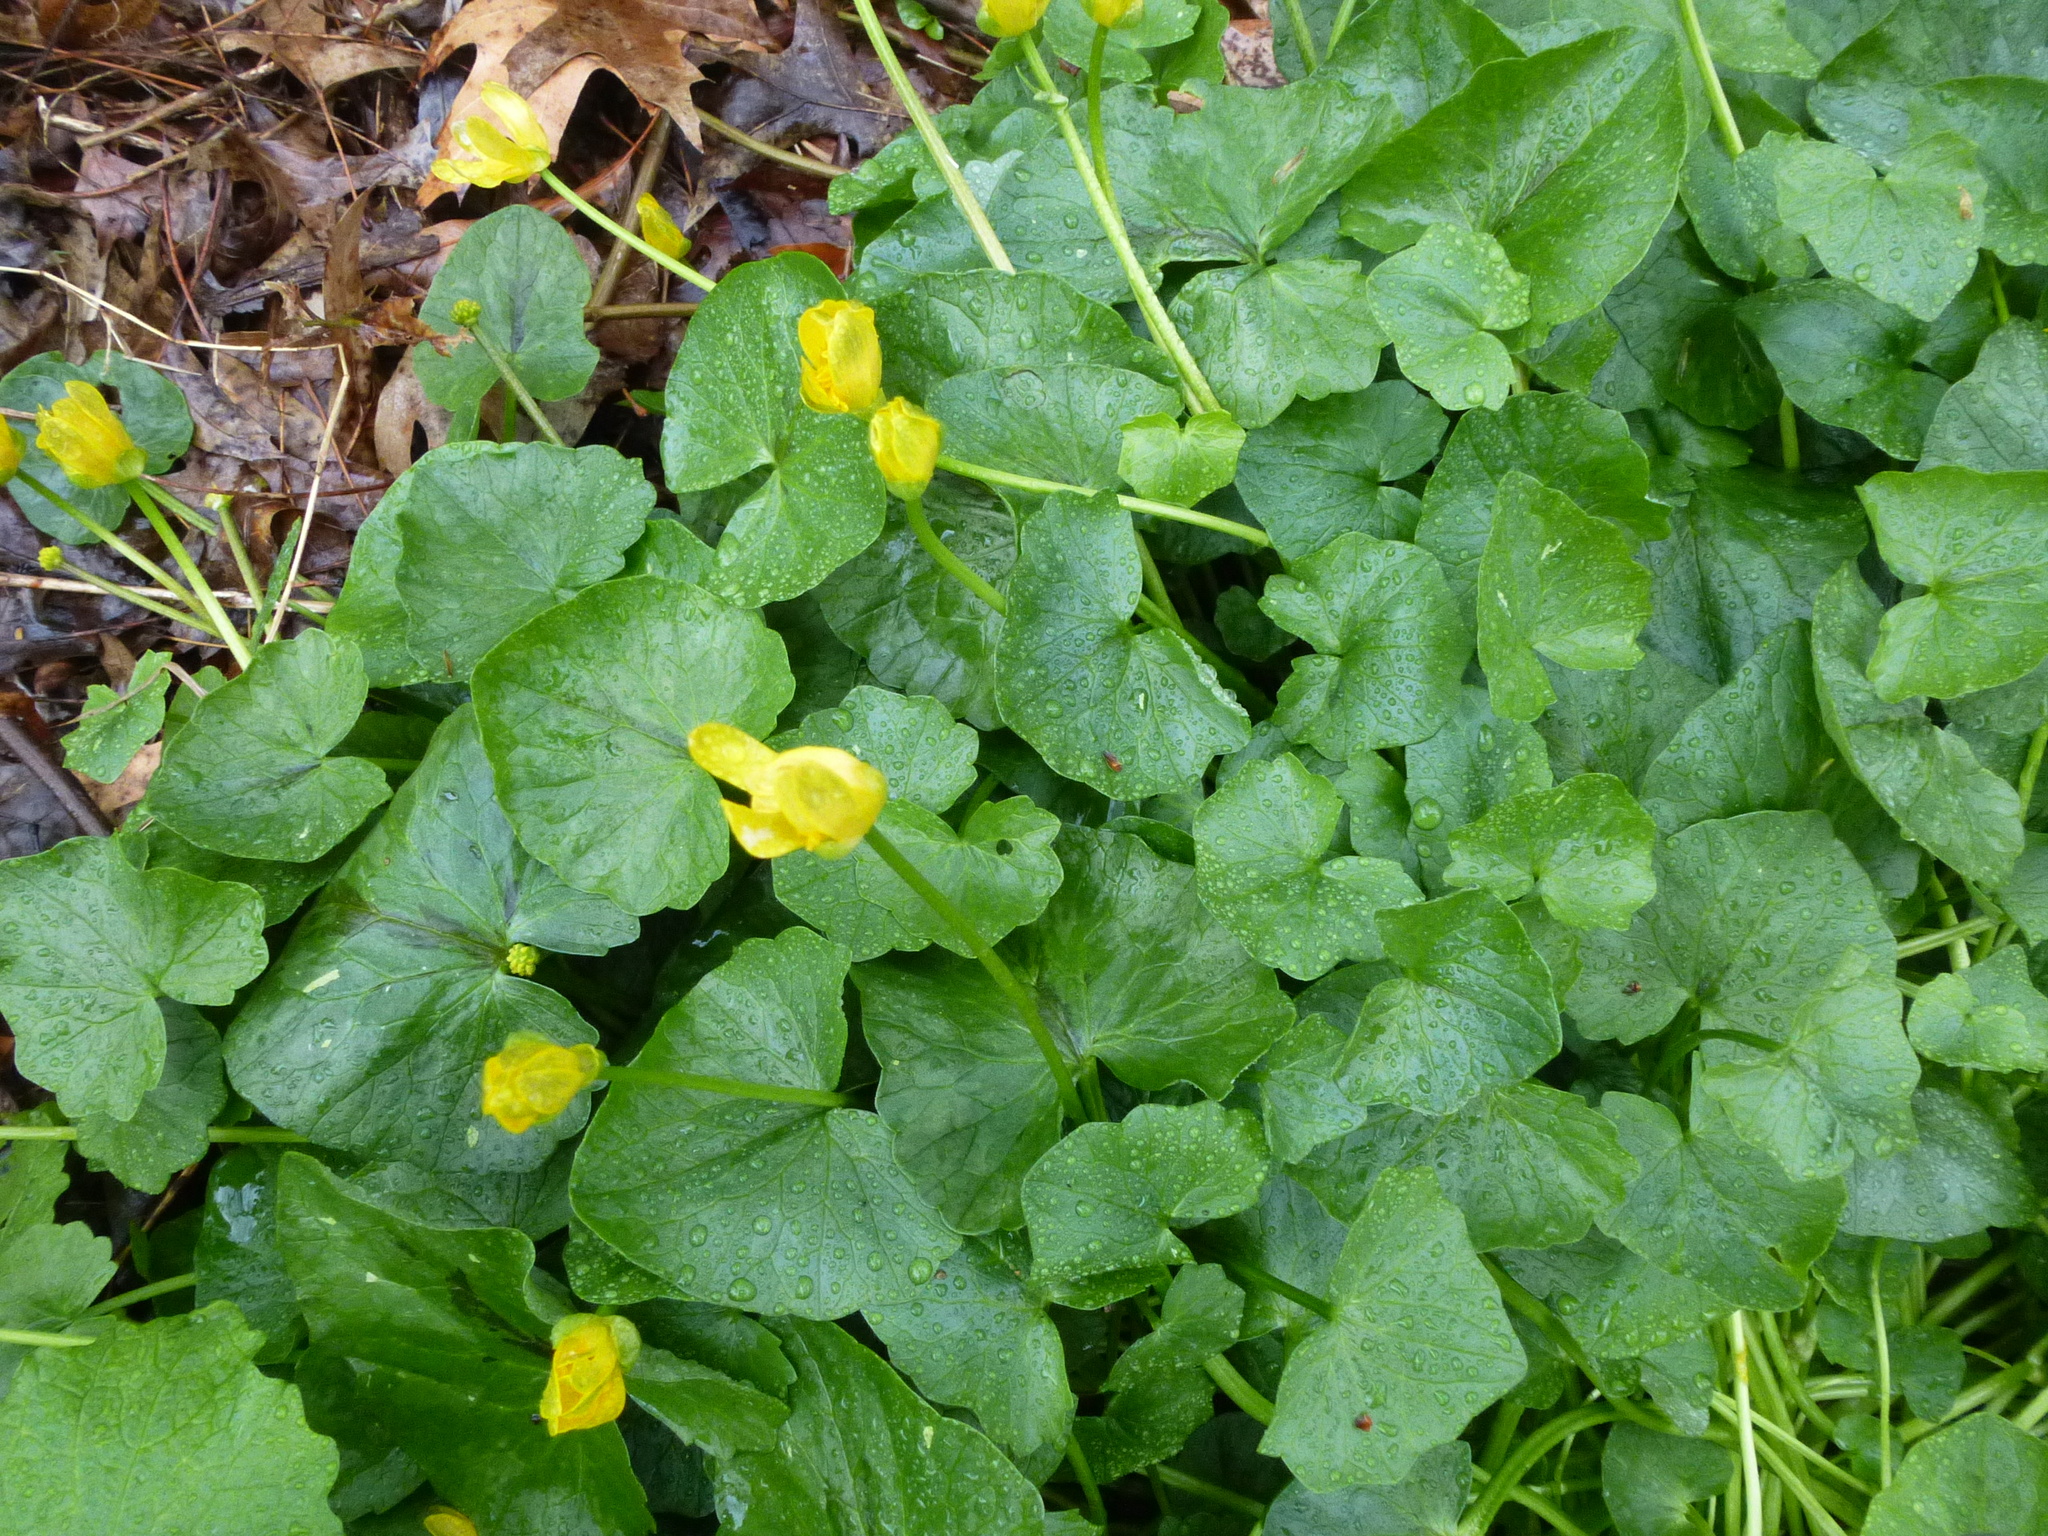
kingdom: Plantae
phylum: Tracheophyta
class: Magnoliopsida
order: Ranunculales
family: Ranunculaceae
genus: Ficaria
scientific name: Ficaria verna
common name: Lesser celandine
